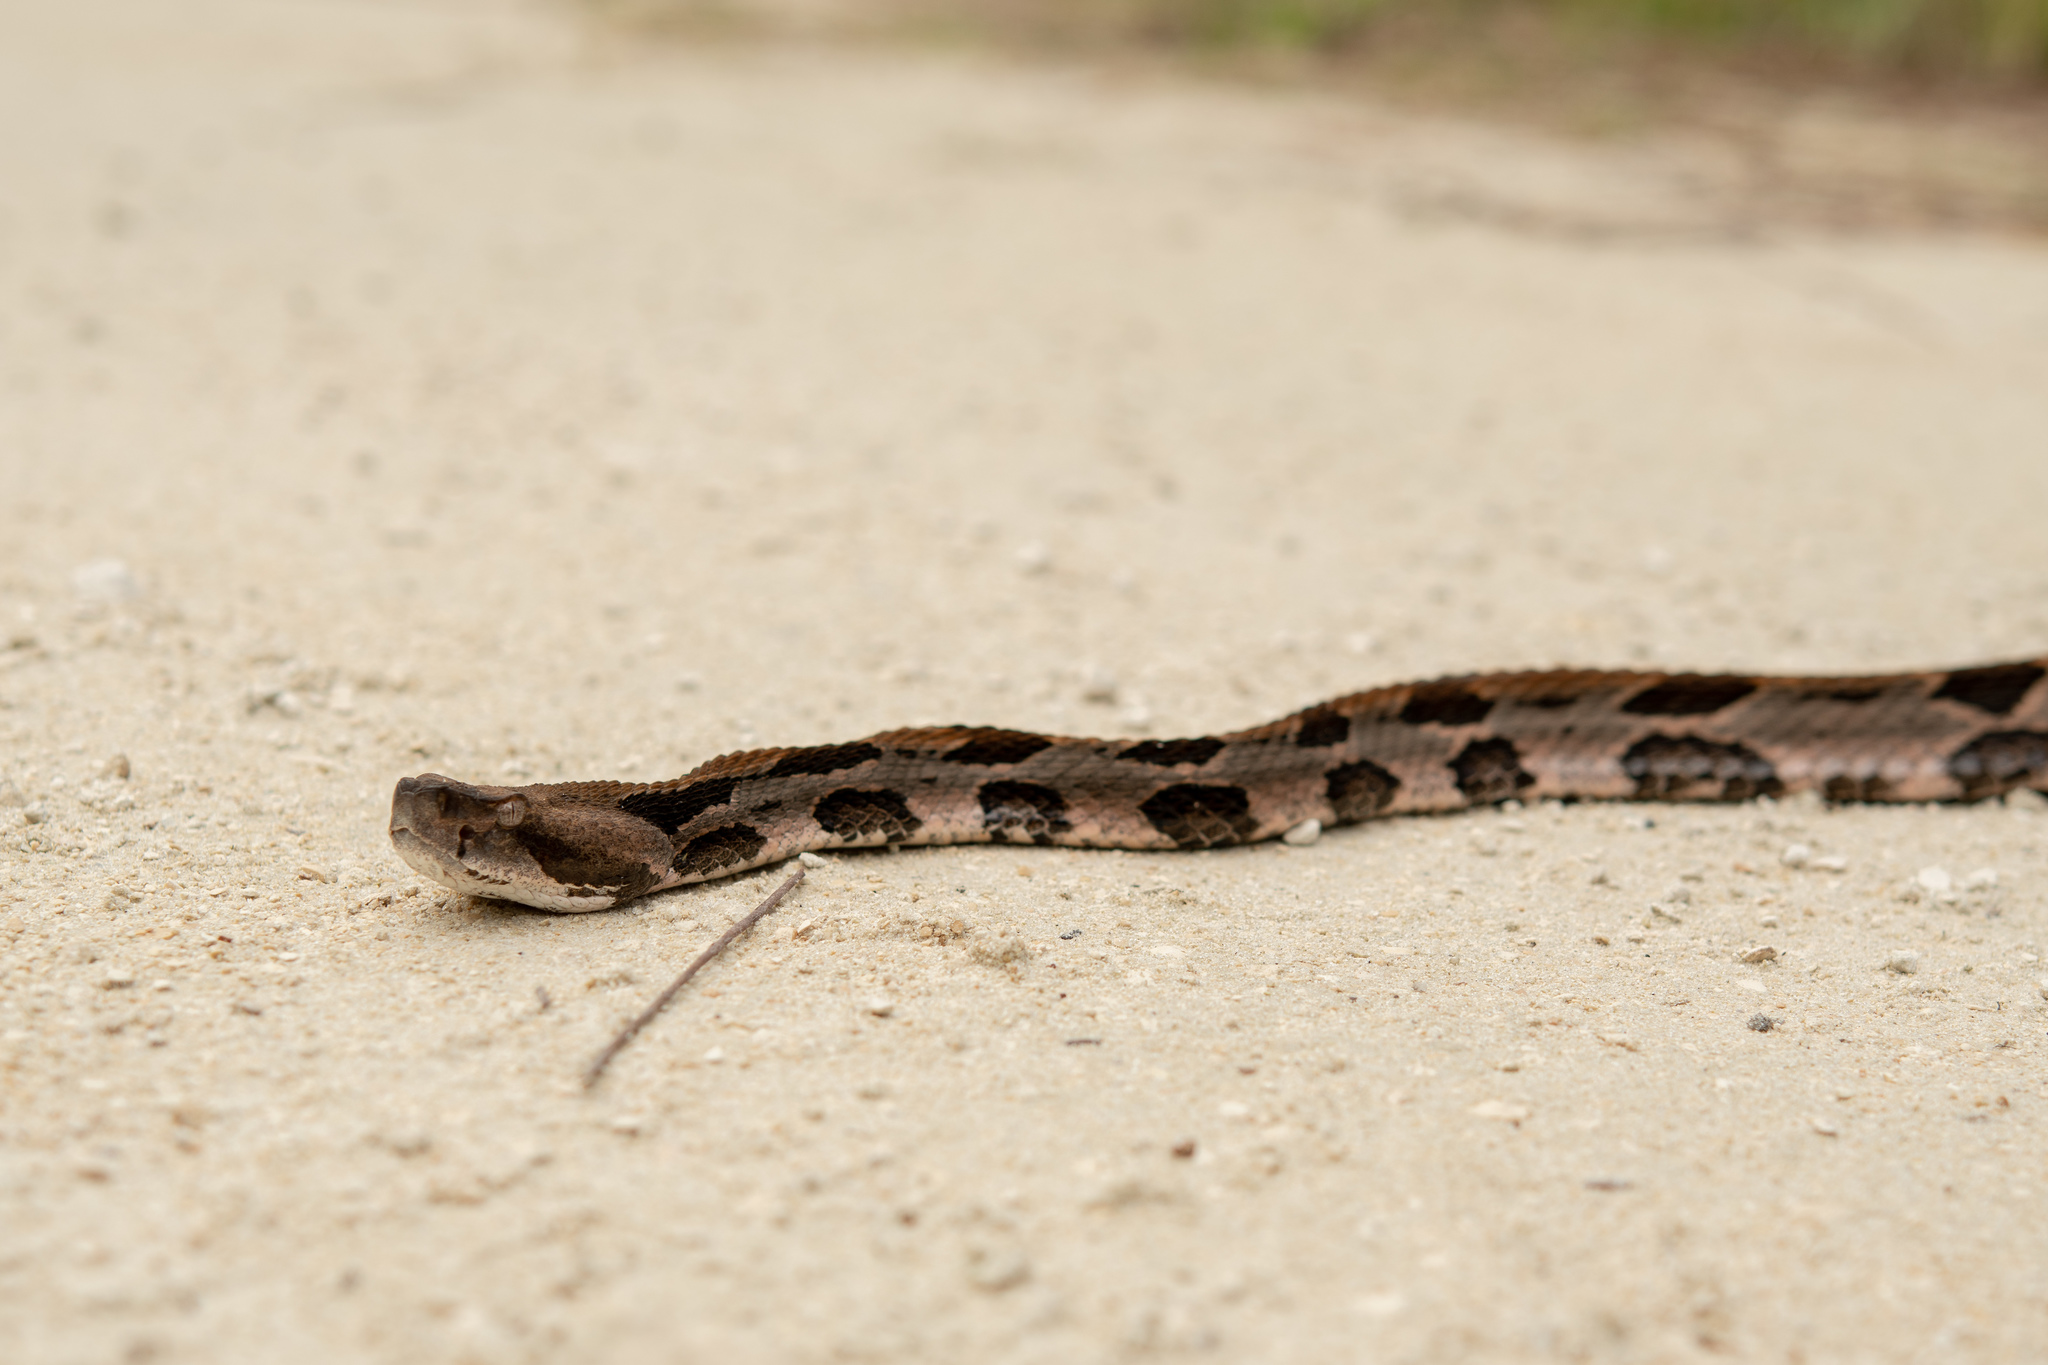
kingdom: Animalia
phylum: Chordata
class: Squamata
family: Viperidae
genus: Crotalus
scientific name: Crotalus horridus
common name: Timber rattlesnake
